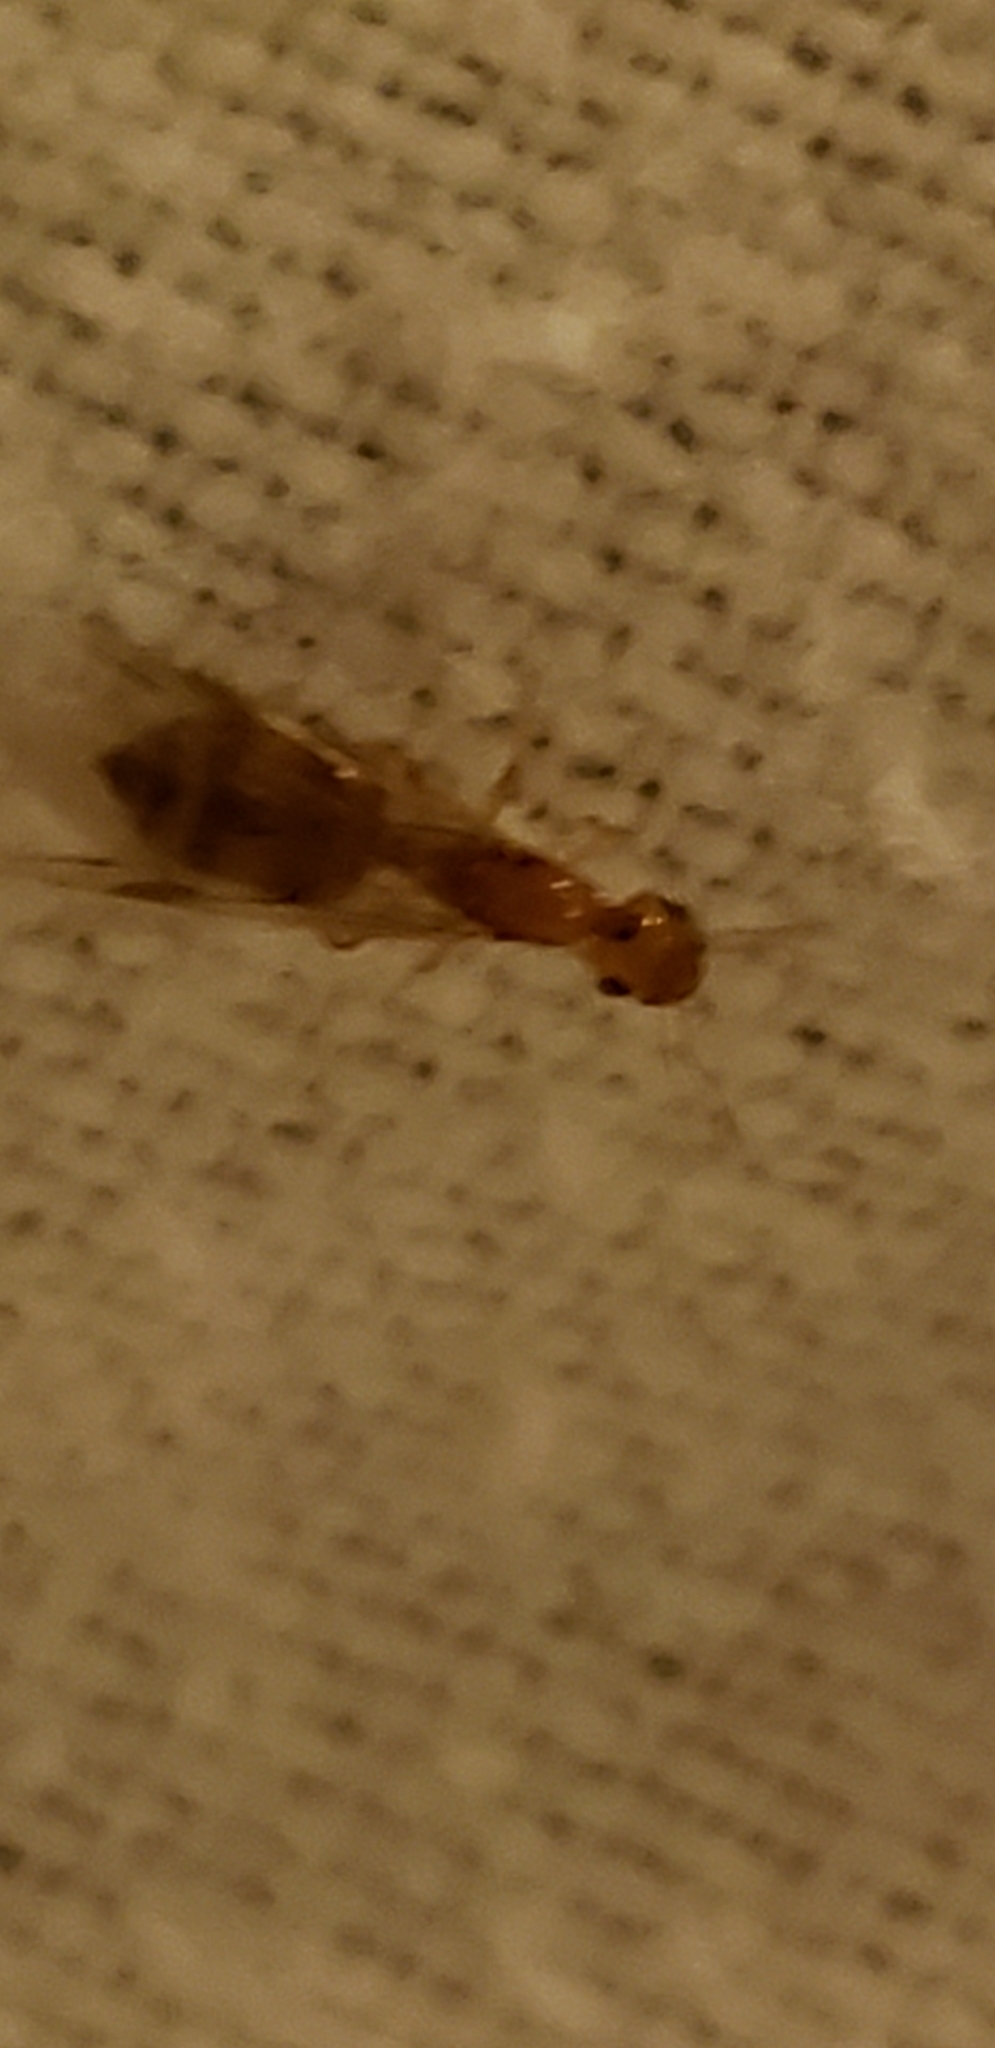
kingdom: Animalia
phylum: Arthropoda
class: Insecta
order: Hymenoptera
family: Formicidae
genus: Crematogaster
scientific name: Crematogaster steinheili
